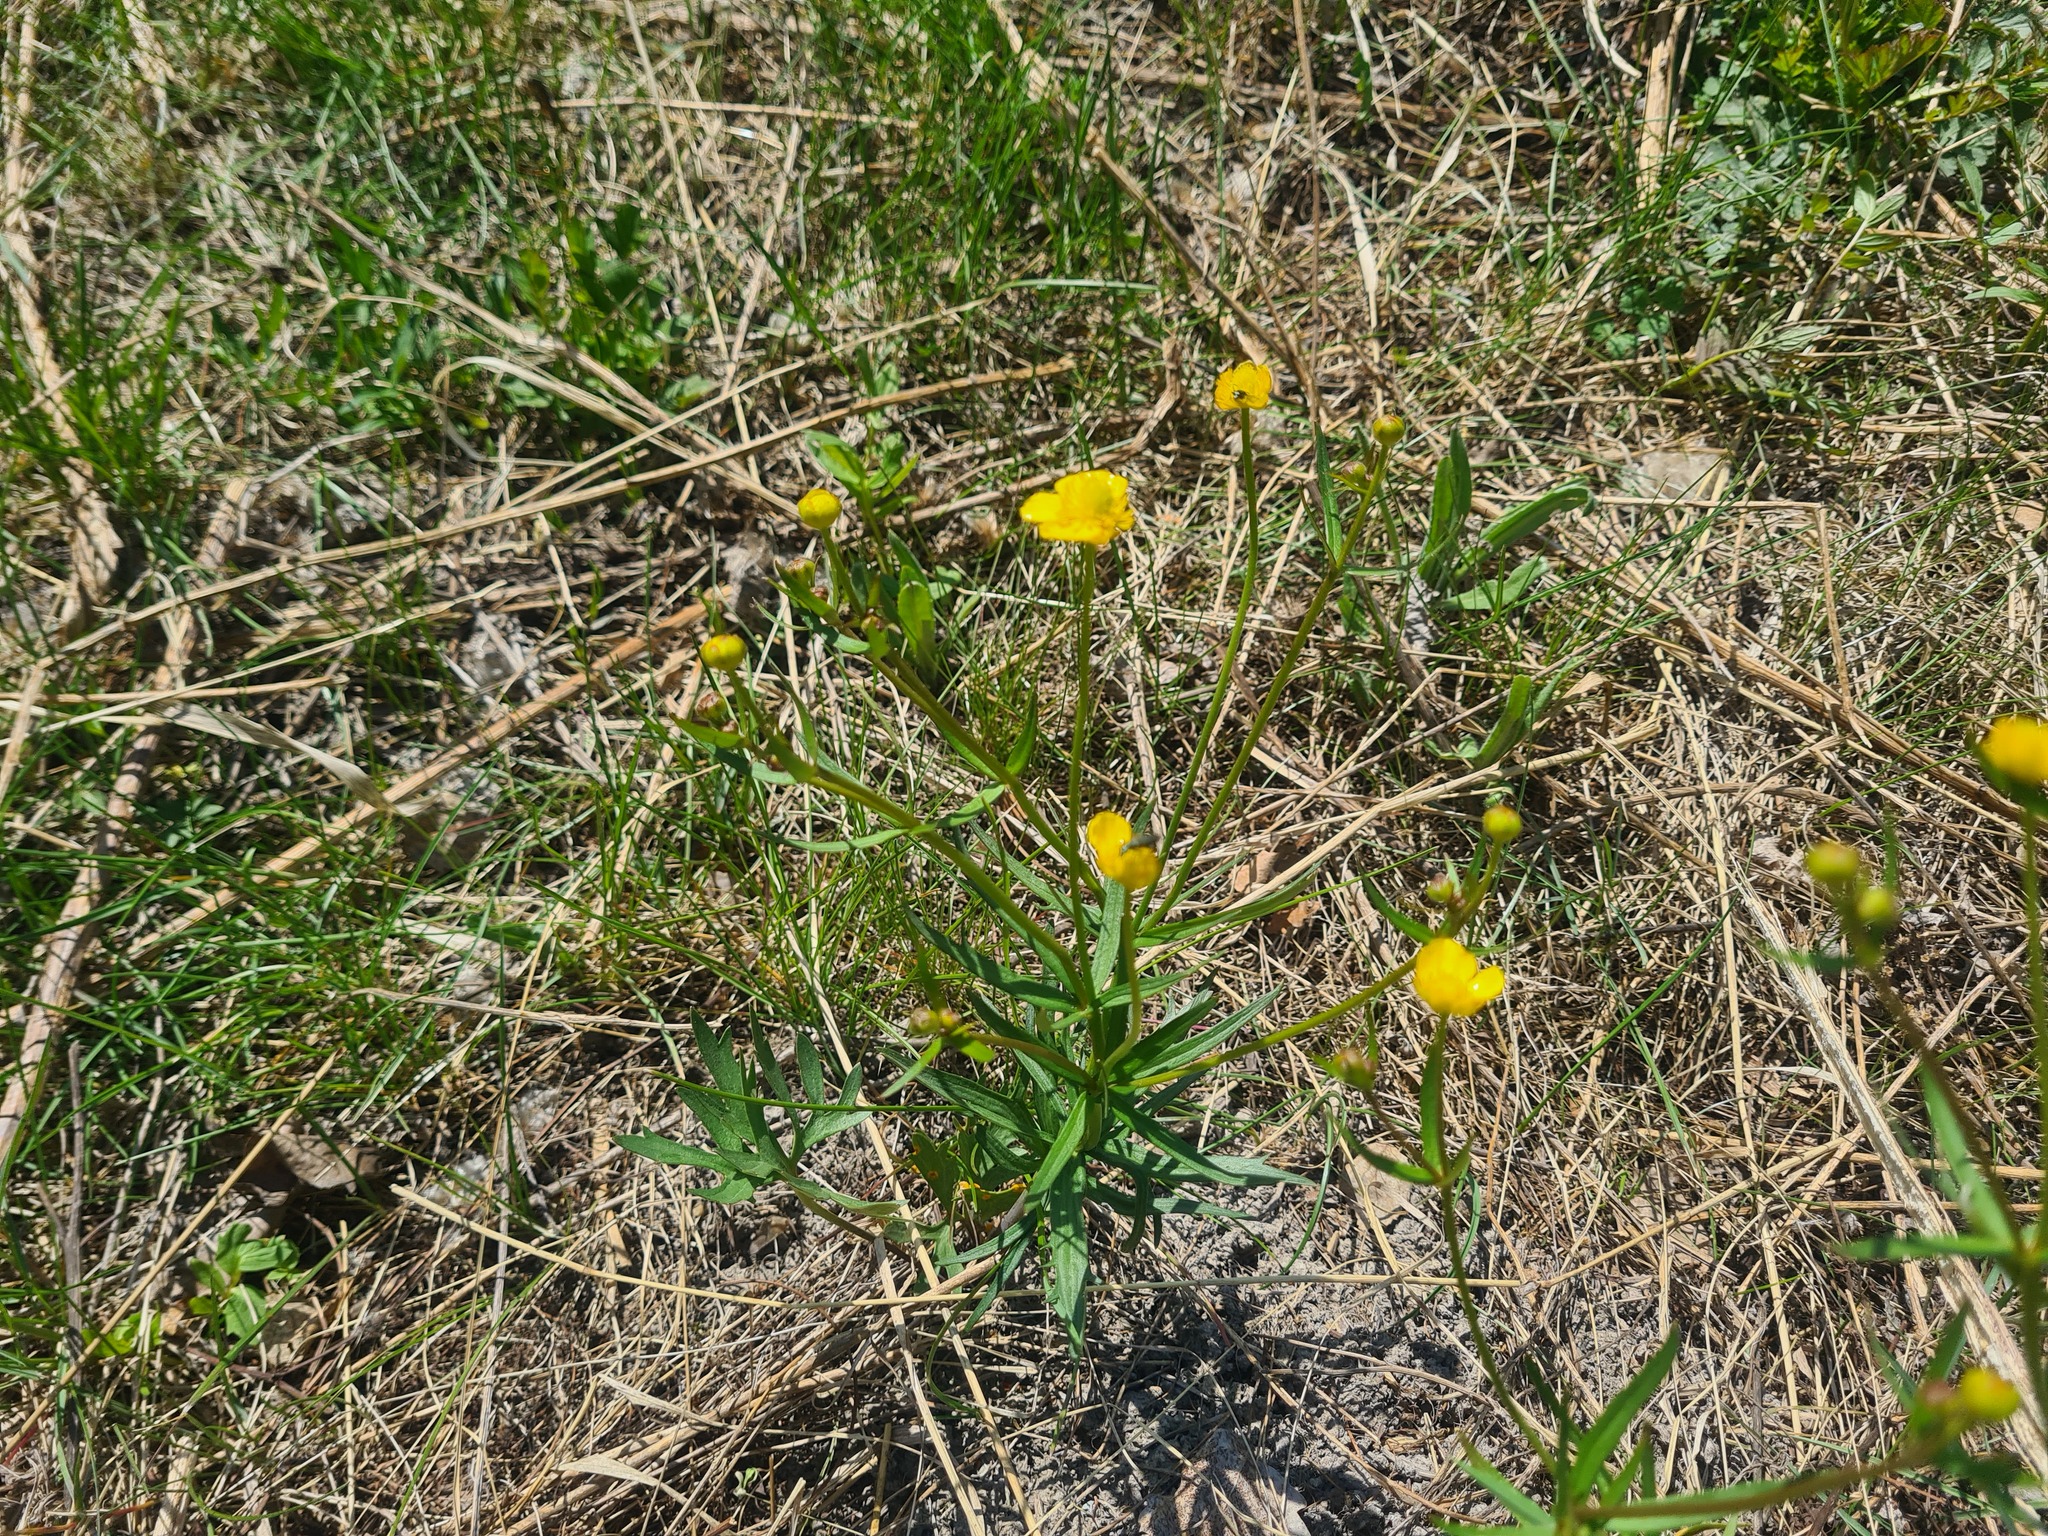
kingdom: Plantae
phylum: Tracheophyta
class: Magnoliopsida
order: Ranunculales
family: Ranunculaceae
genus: Ranunculus
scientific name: Ranunculus auricomus
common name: Goldilocks buttercup
